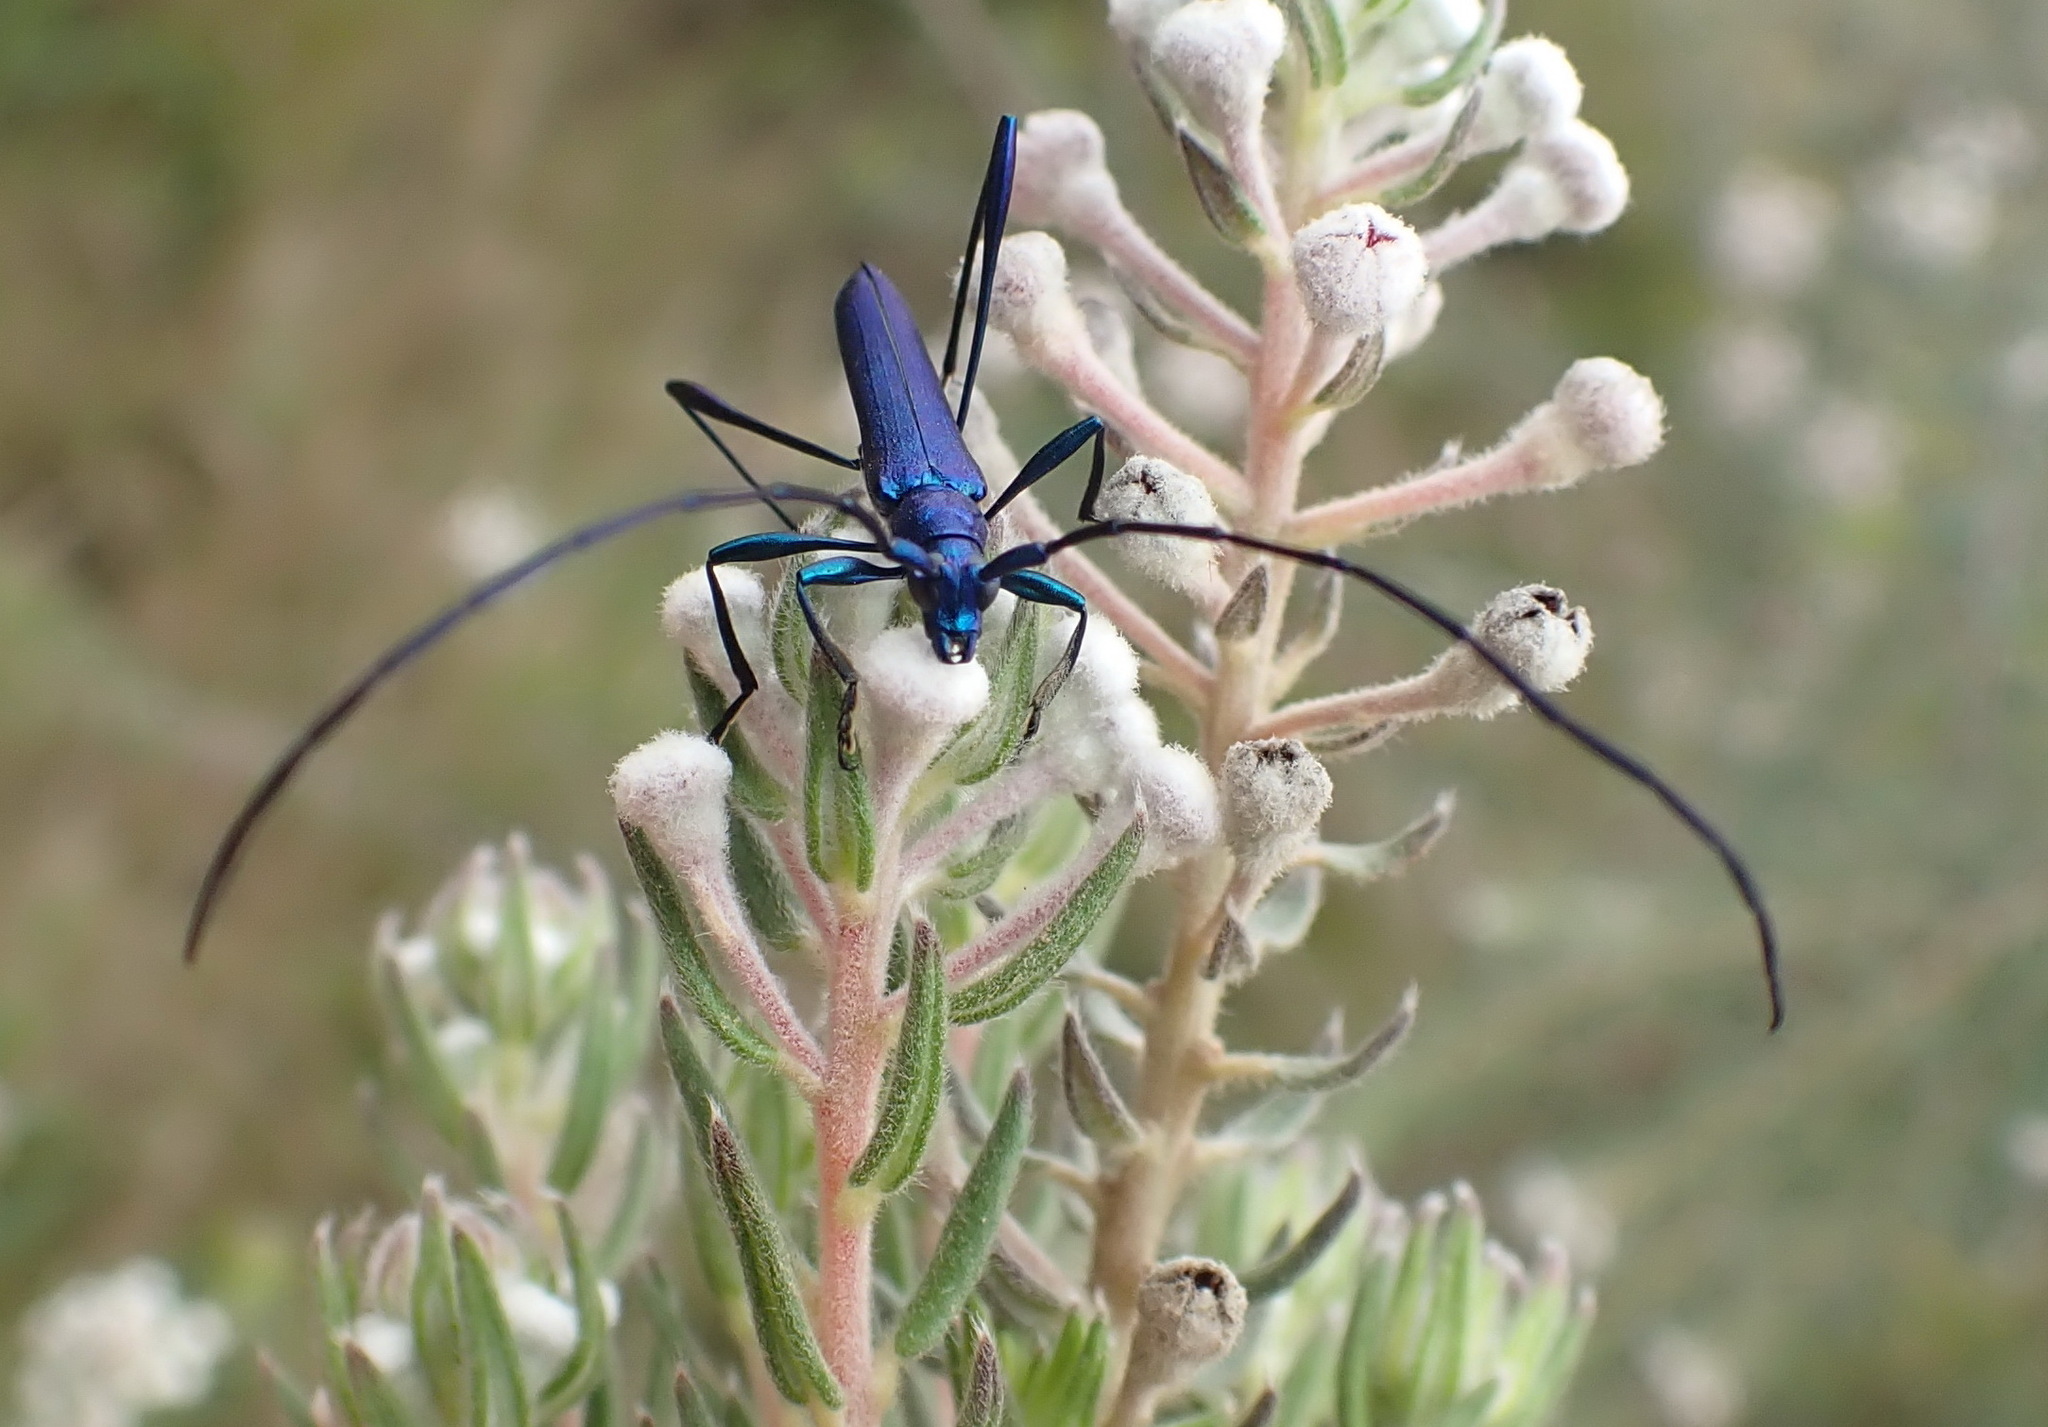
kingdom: Animalia
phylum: Arthropoda
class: Insecta
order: Coleoptera
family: Cerambycidae
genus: Promeces
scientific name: Promeces longipes
